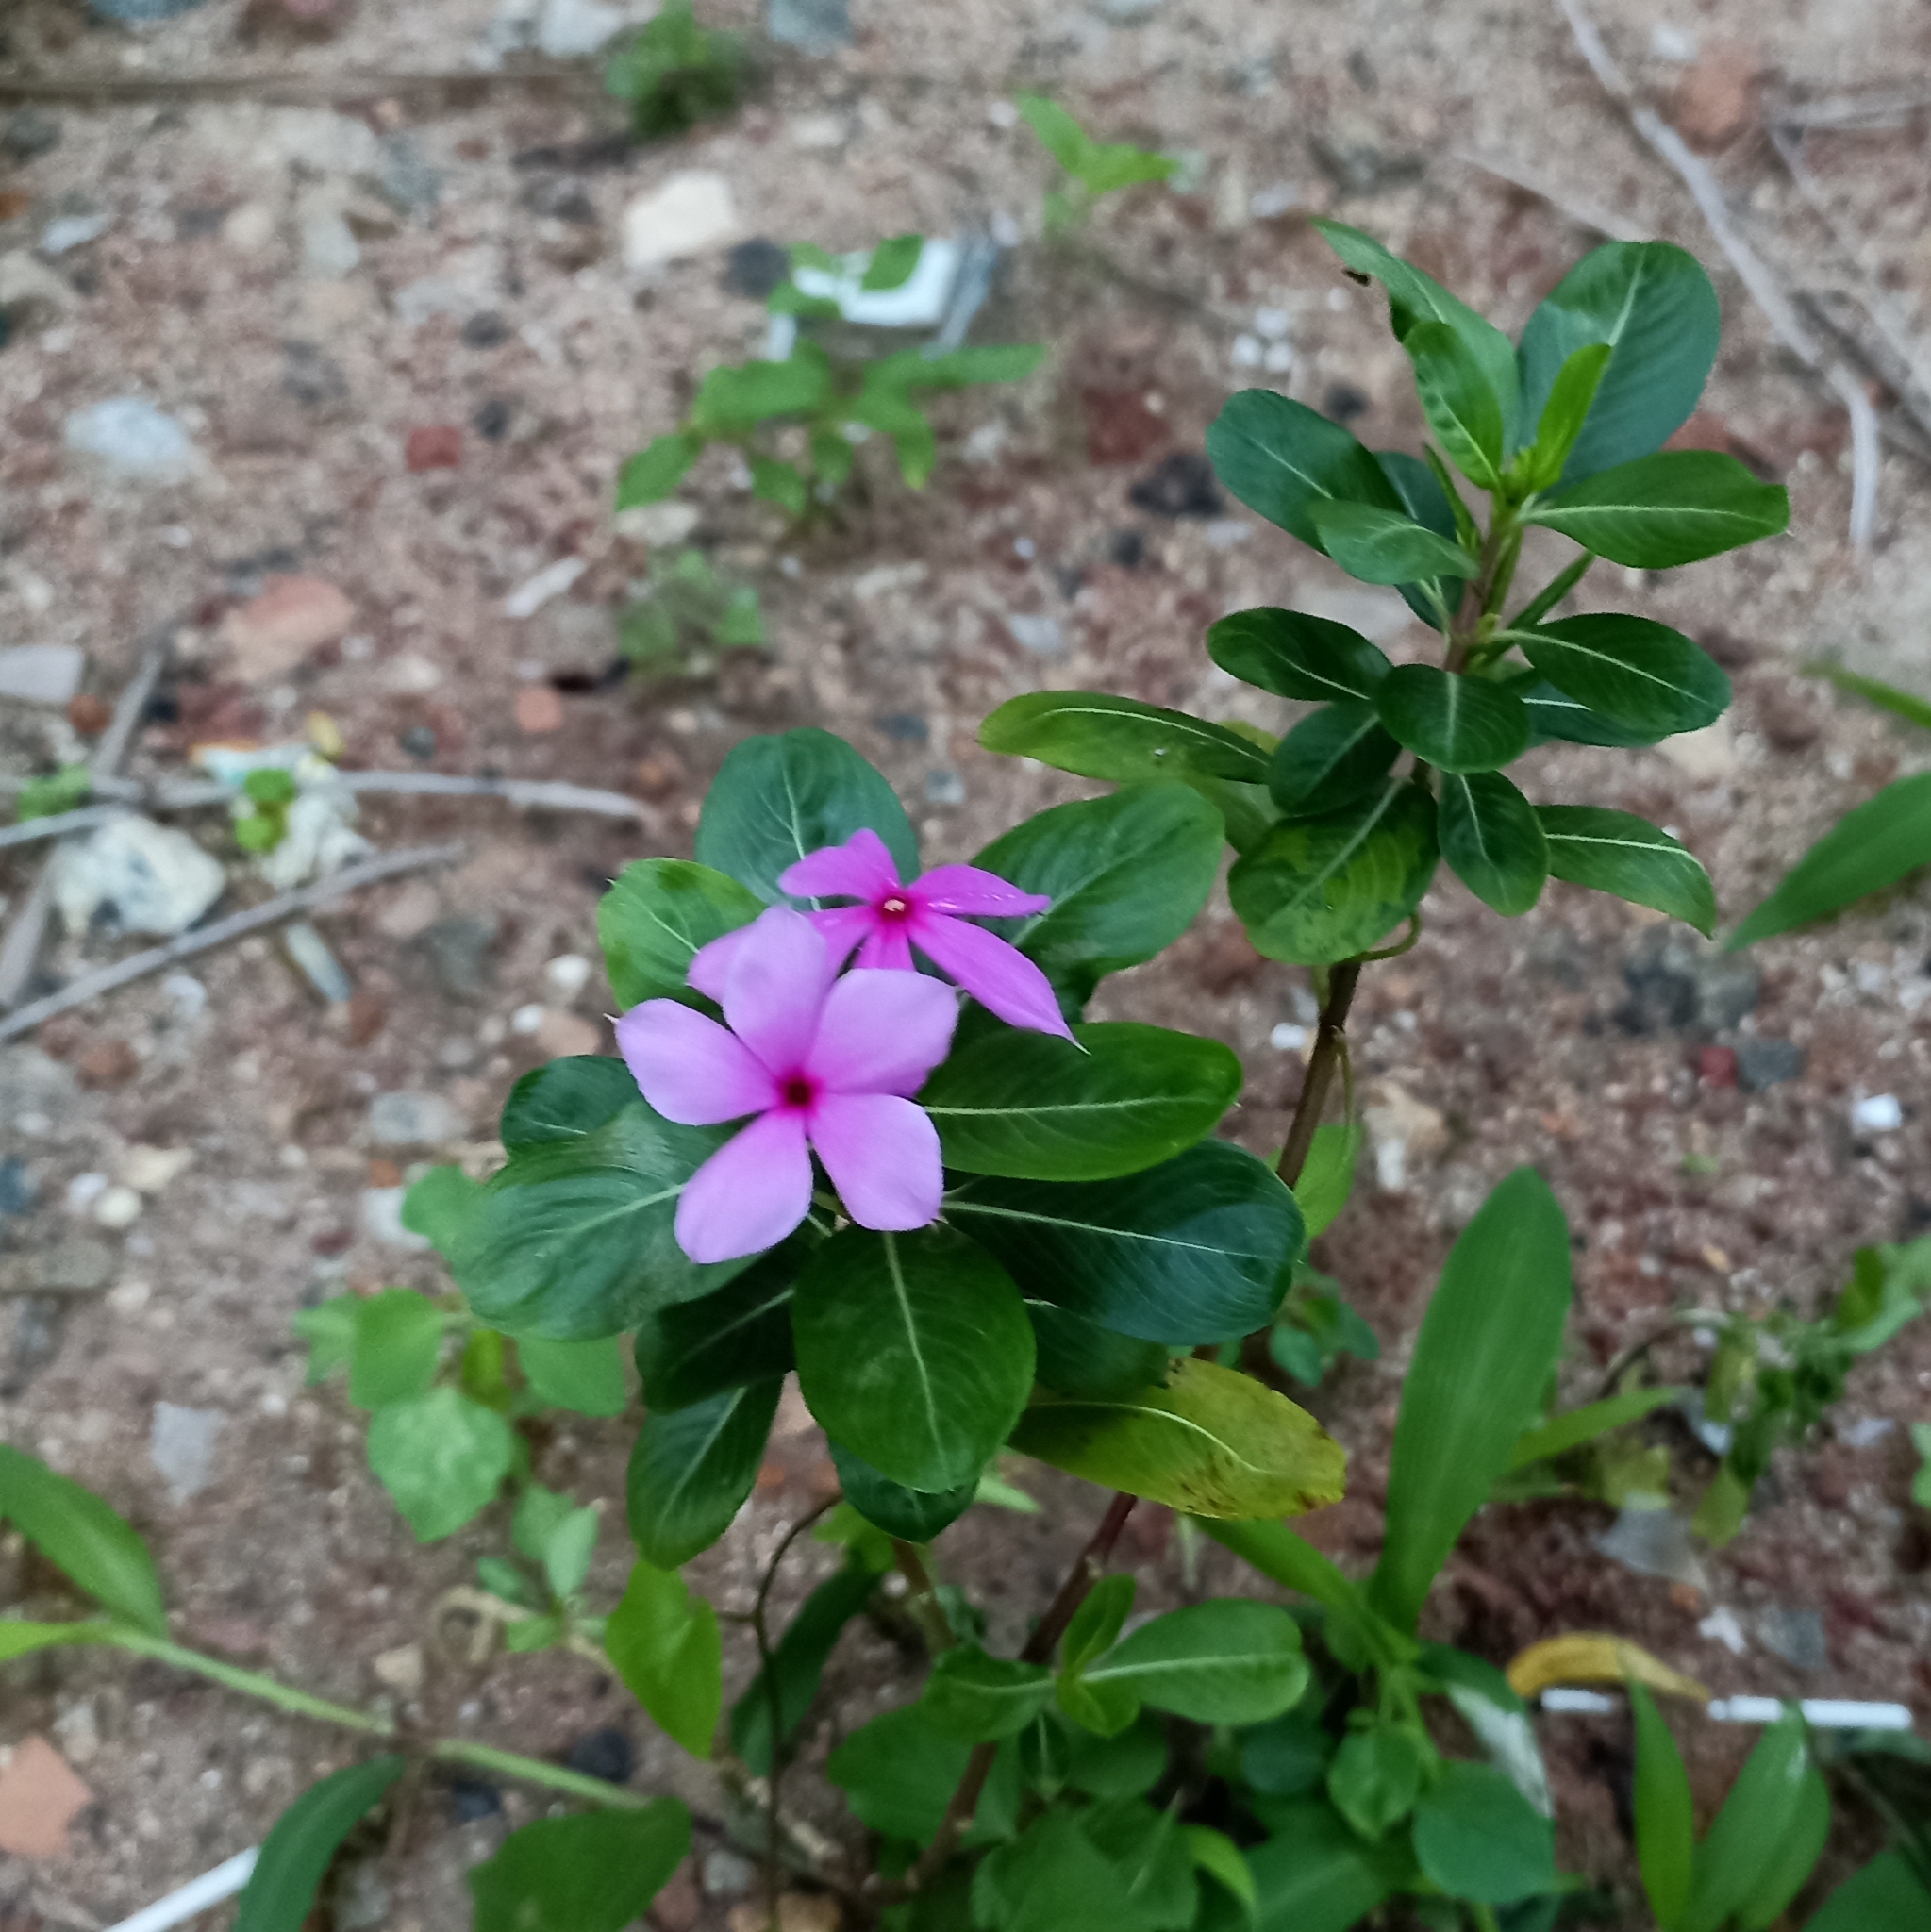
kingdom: Plantae
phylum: Tracheophyta
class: Magnoliopsida
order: Gentianales
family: Apocynaceae
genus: Catharanthus
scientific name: Catharanthus roseus
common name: Madagascar periwinkle
